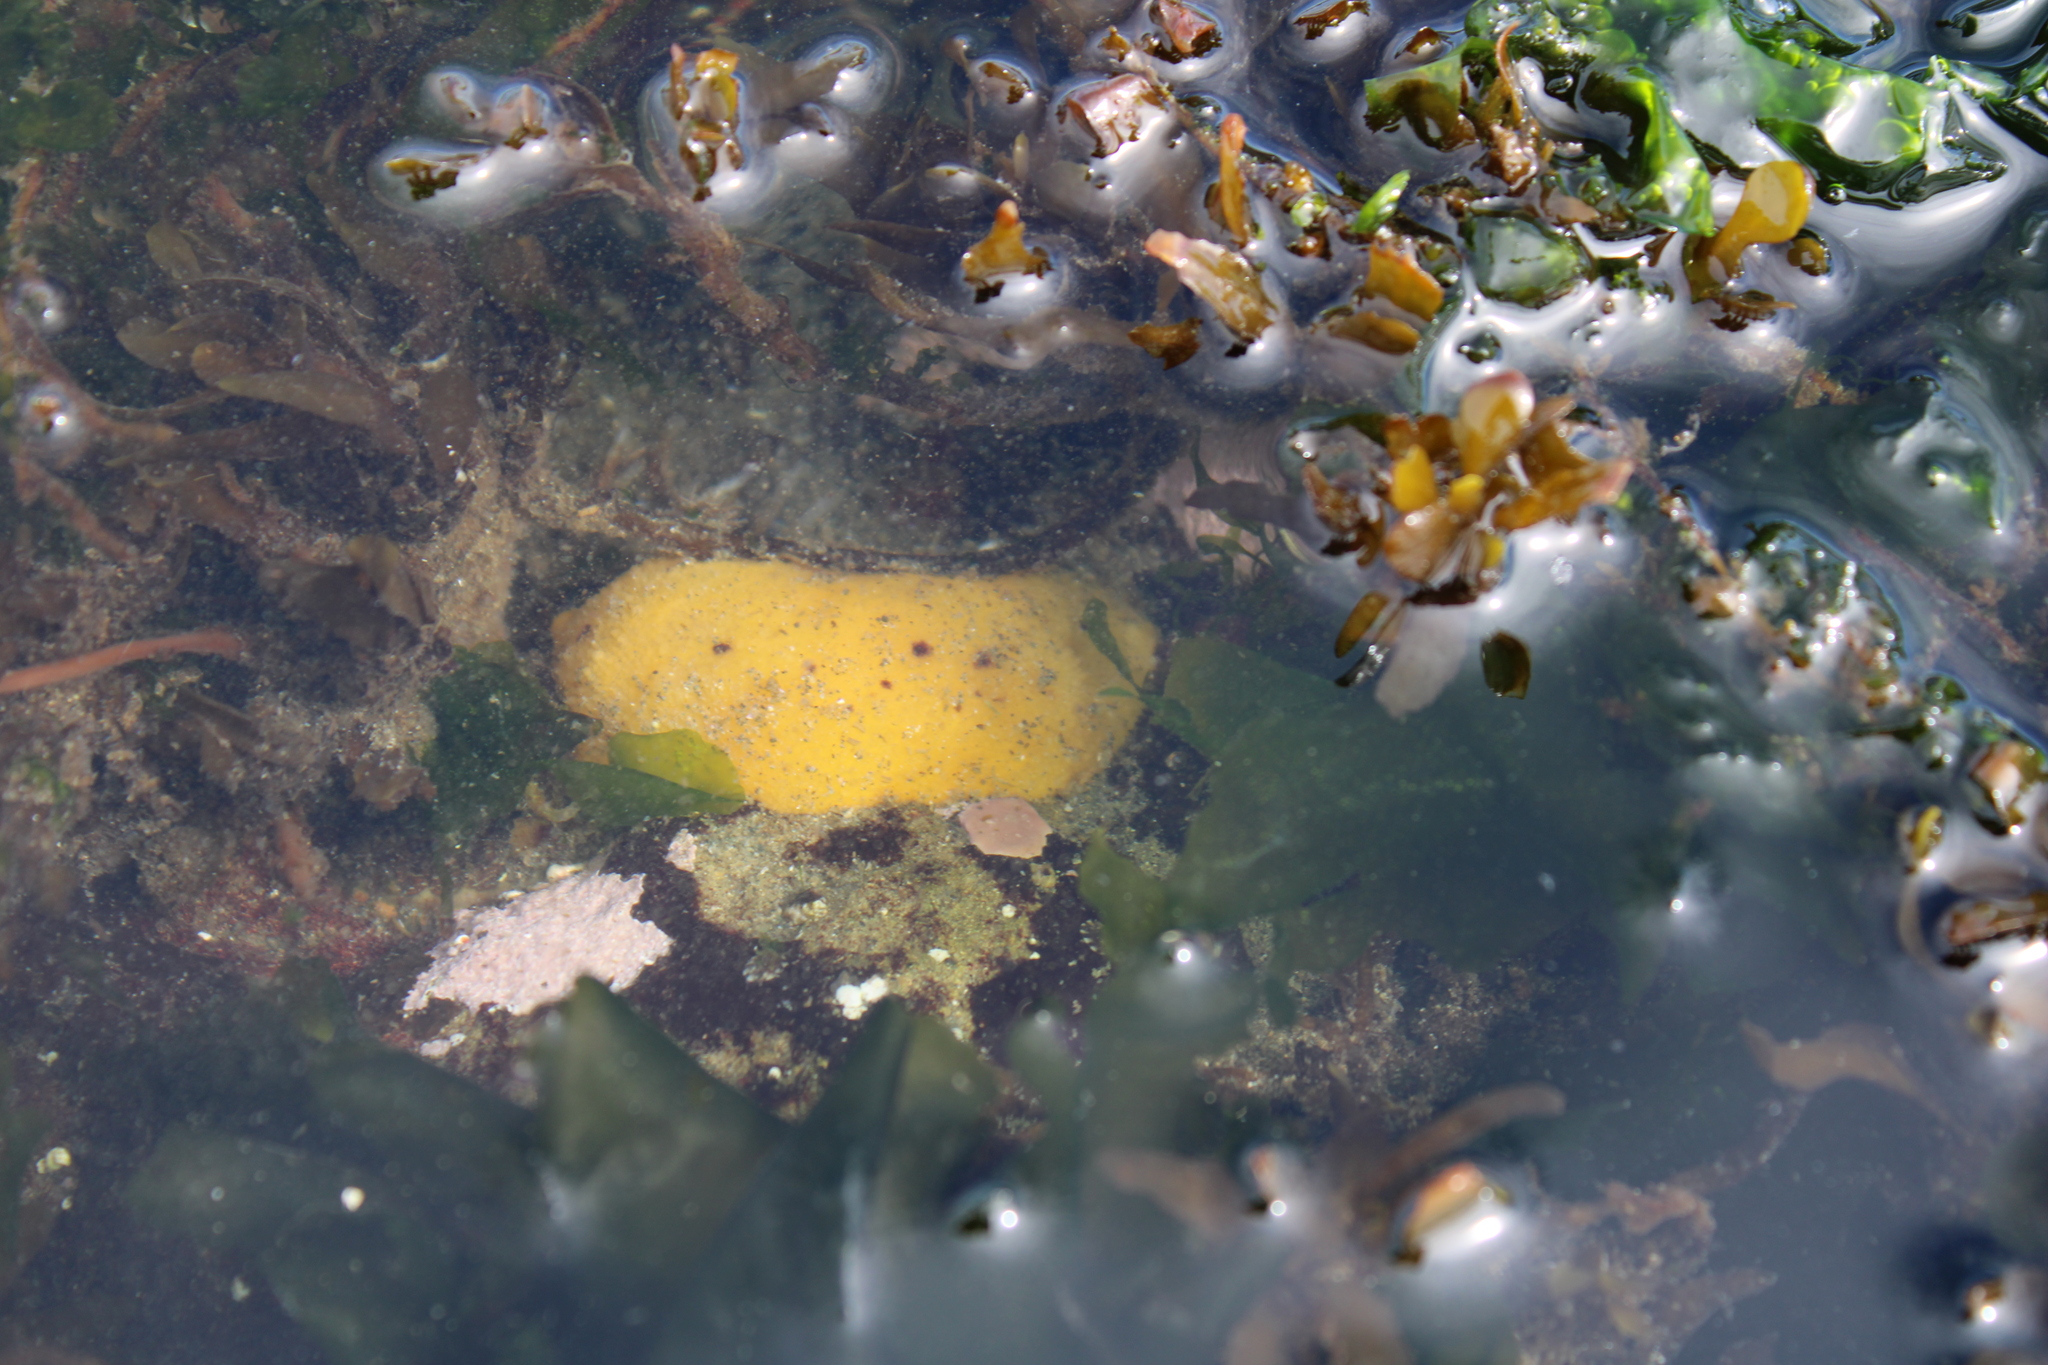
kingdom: Animalia
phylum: Mollusca
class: Gastropoda
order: Nudibranchia
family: Dorididae
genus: Doris
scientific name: Doris montereyensis
